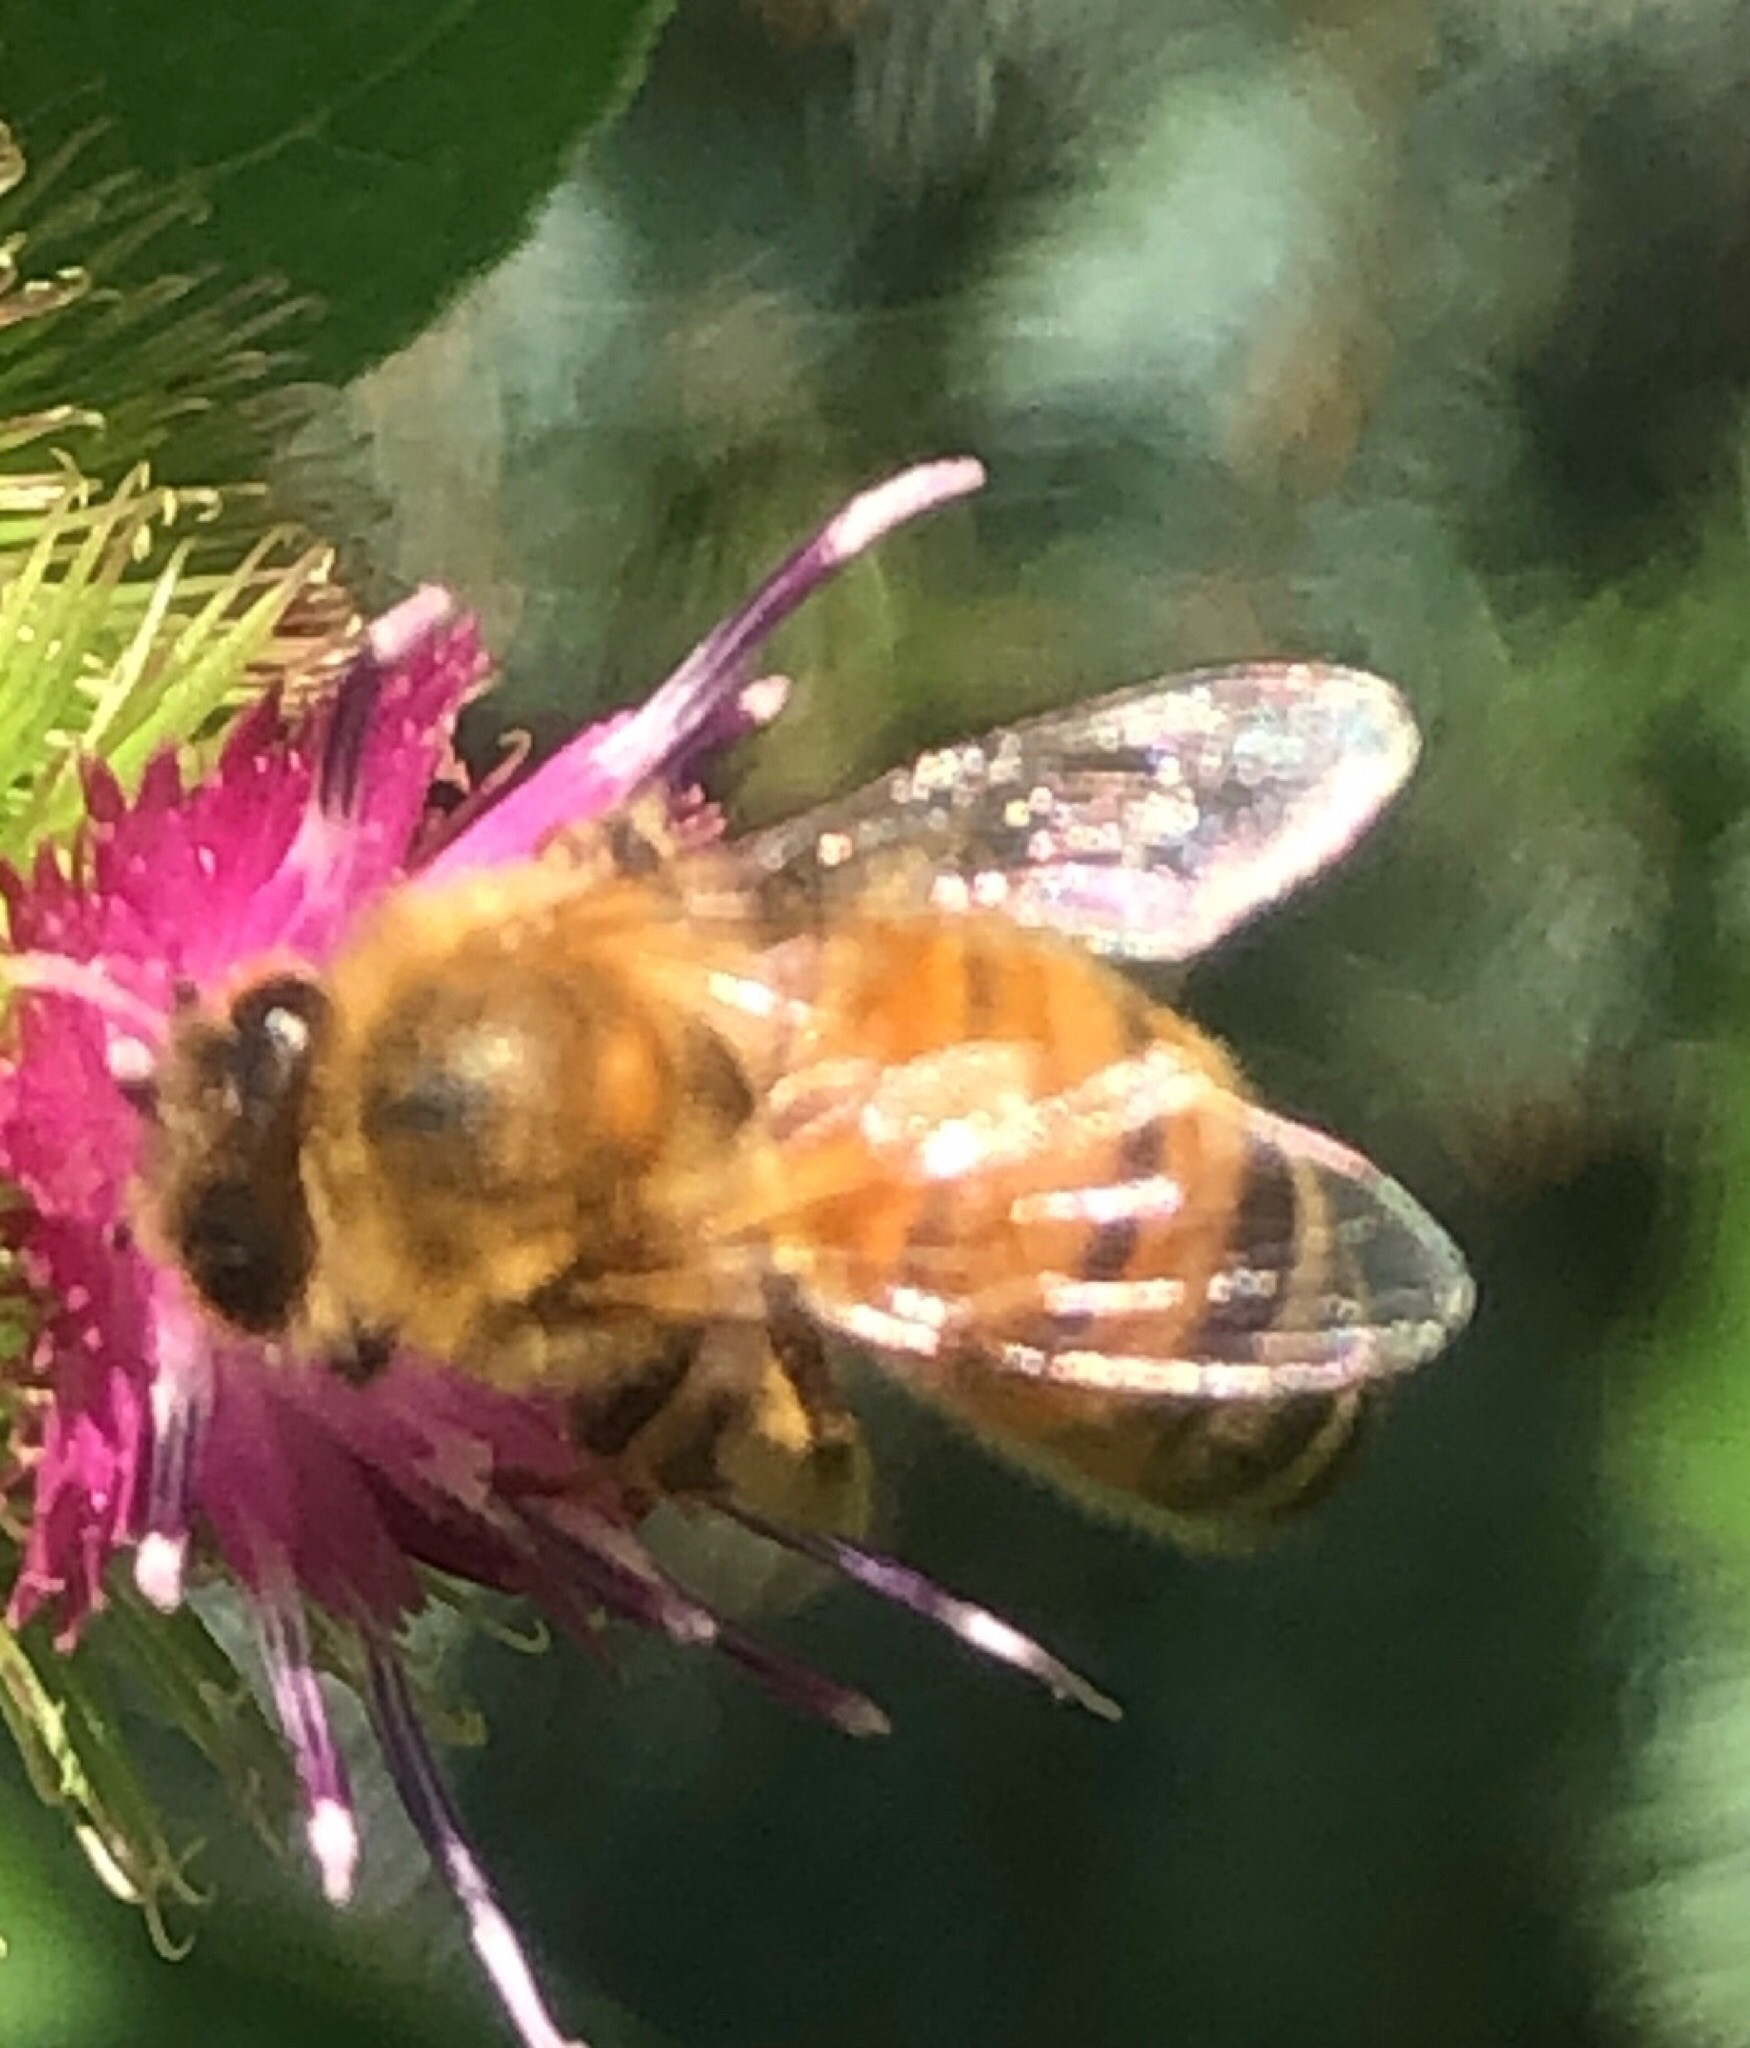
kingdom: Animalia
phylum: Arthropoda
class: Insecta
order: Hymenoptera
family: Apidae
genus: Apis
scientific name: Apis mellifera
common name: Honey bee
